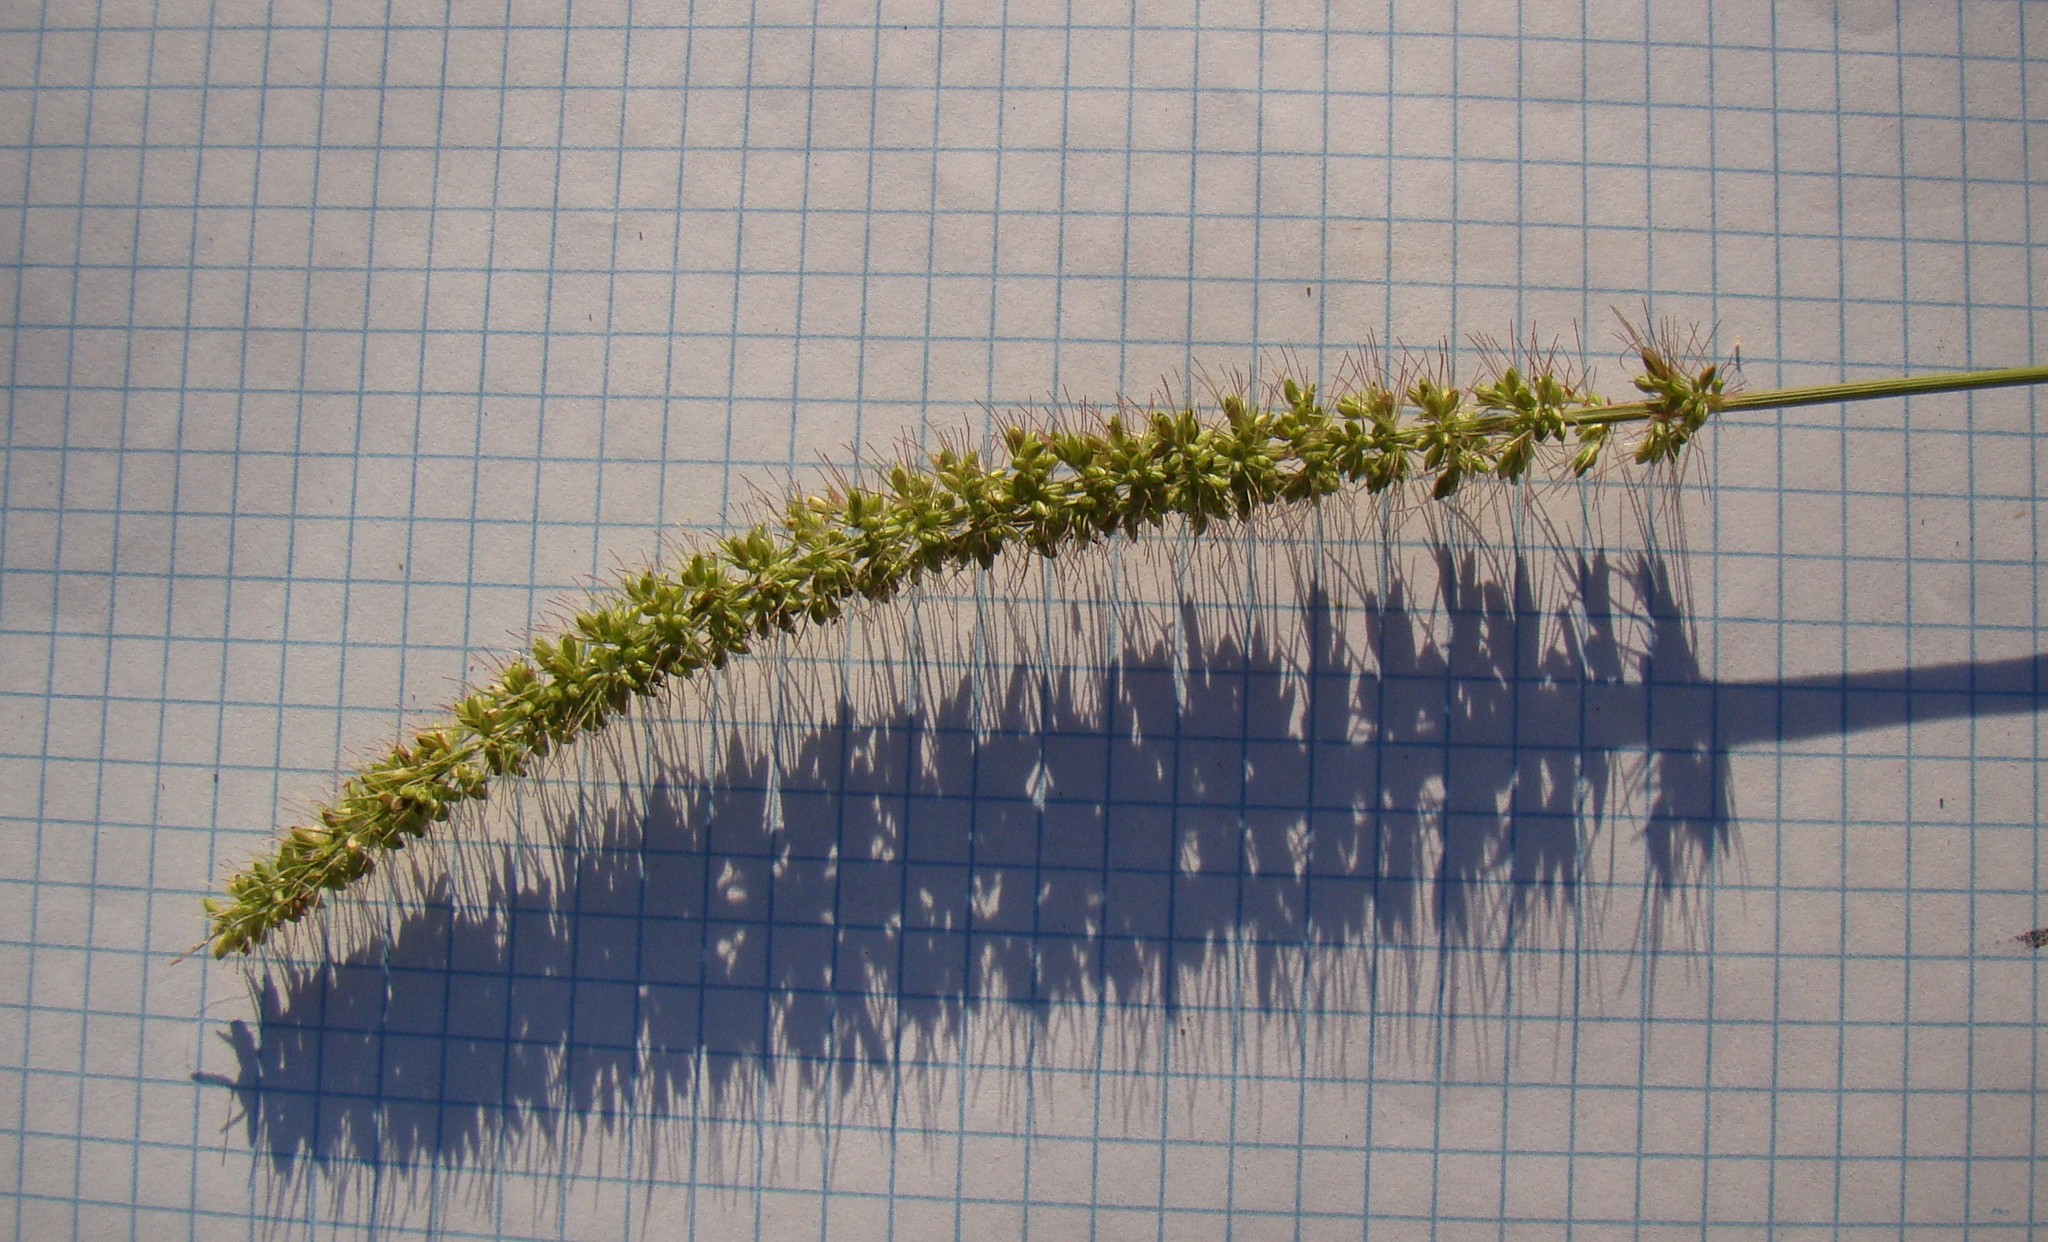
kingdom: Plantae
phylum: Tracheophyta
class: Liliopsida
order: Poales
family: Poaceae
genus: Setaria
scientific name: Setaria verticillata
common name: Hooked bristlegrass
